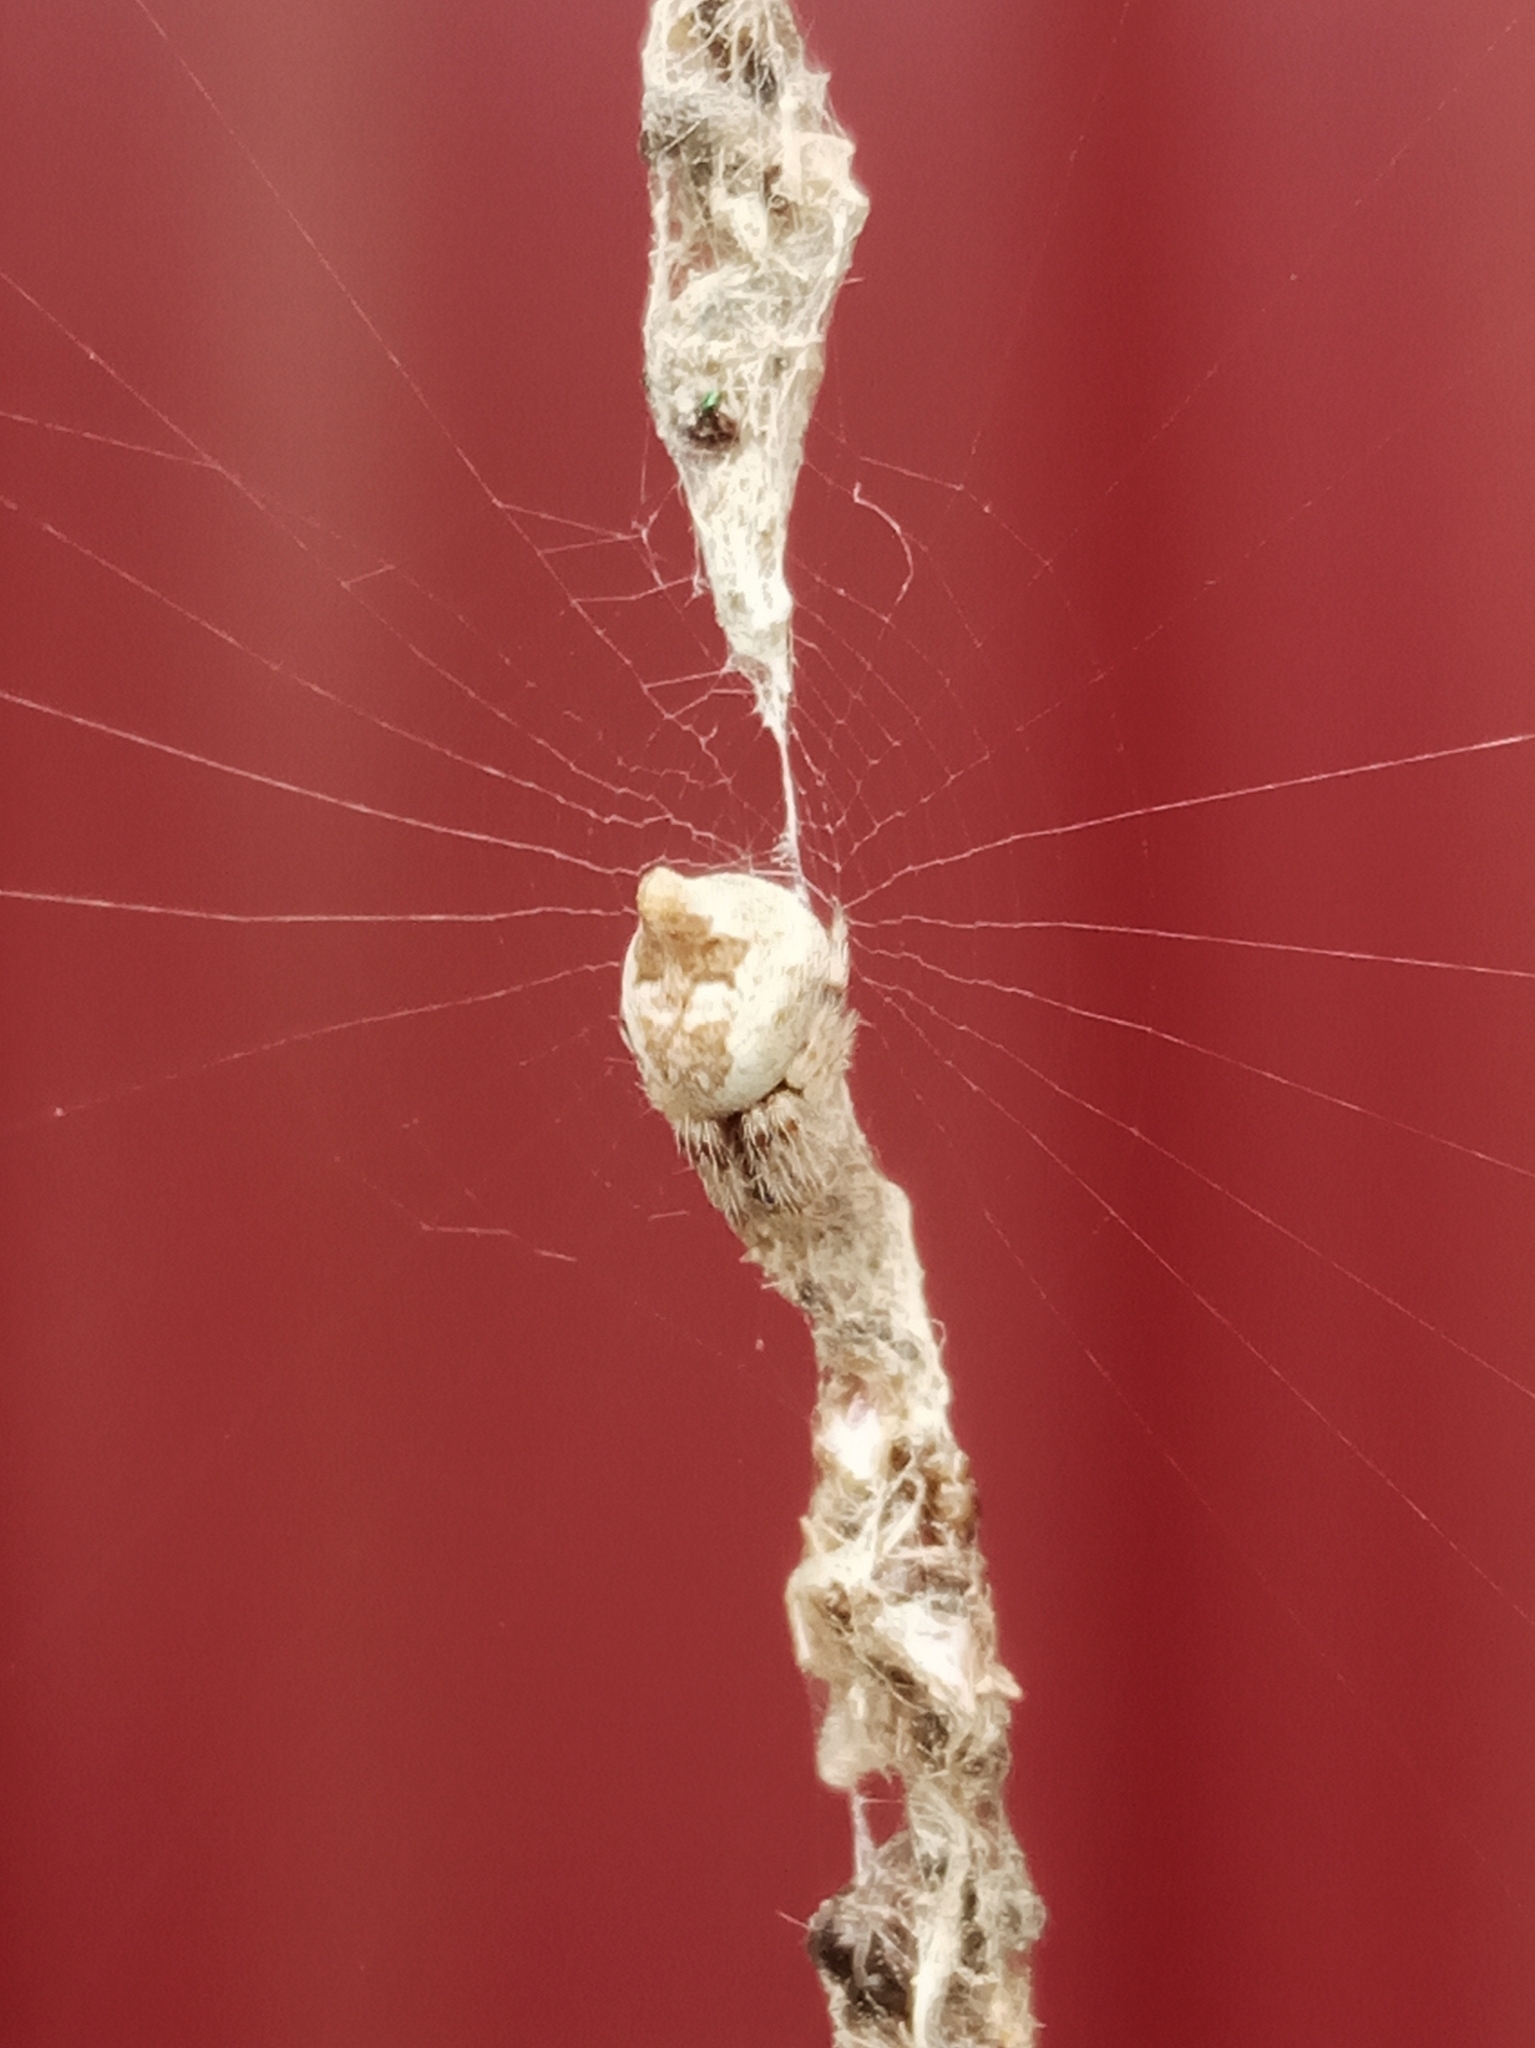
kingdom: Animalia
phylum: Arthropoda
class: Arachnida
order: Araneae
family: Araneidae
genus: Cyclosa
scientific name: Cyclosa conica
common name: Conical trashline orbweaver
